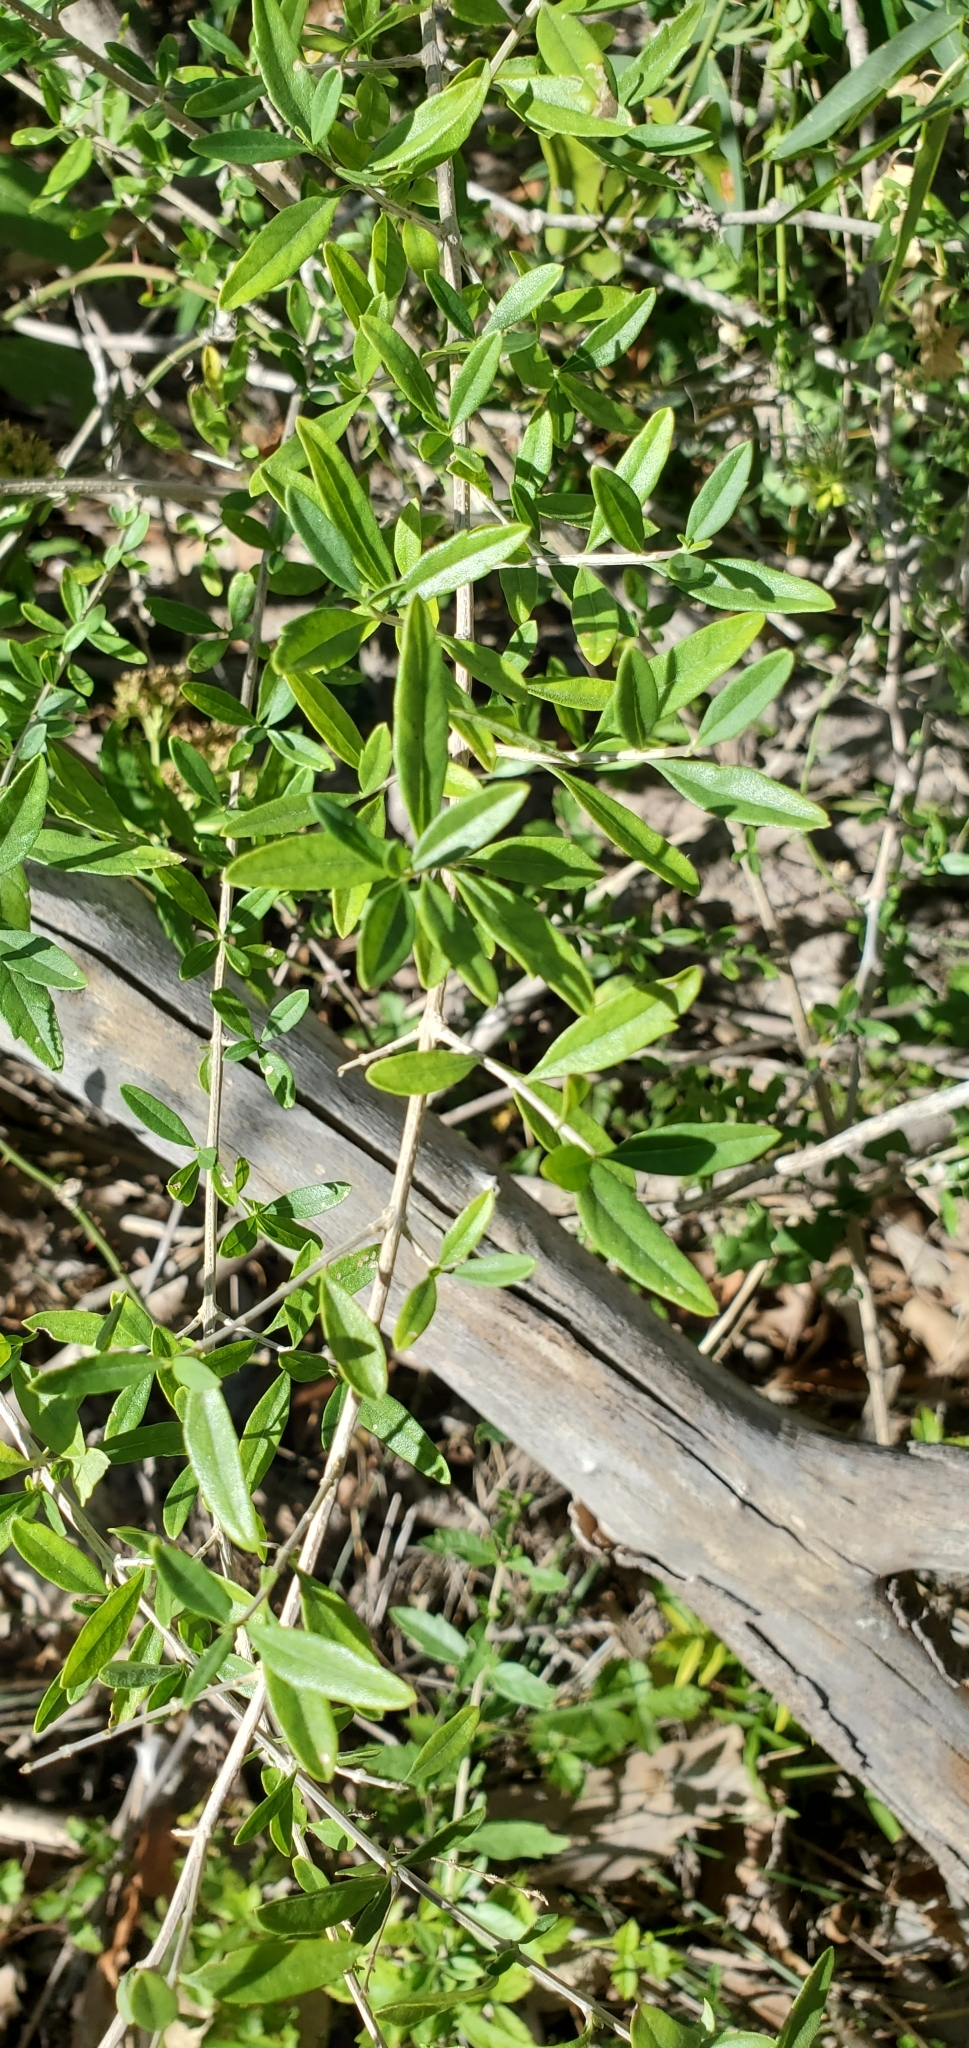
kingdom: Plantae
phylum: Tracheophyta
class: Magnoliopsida
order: Lamiales
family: Verbenaceae
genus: Aloysia
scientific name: Aloysia gratissima
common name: Common bee-brush
